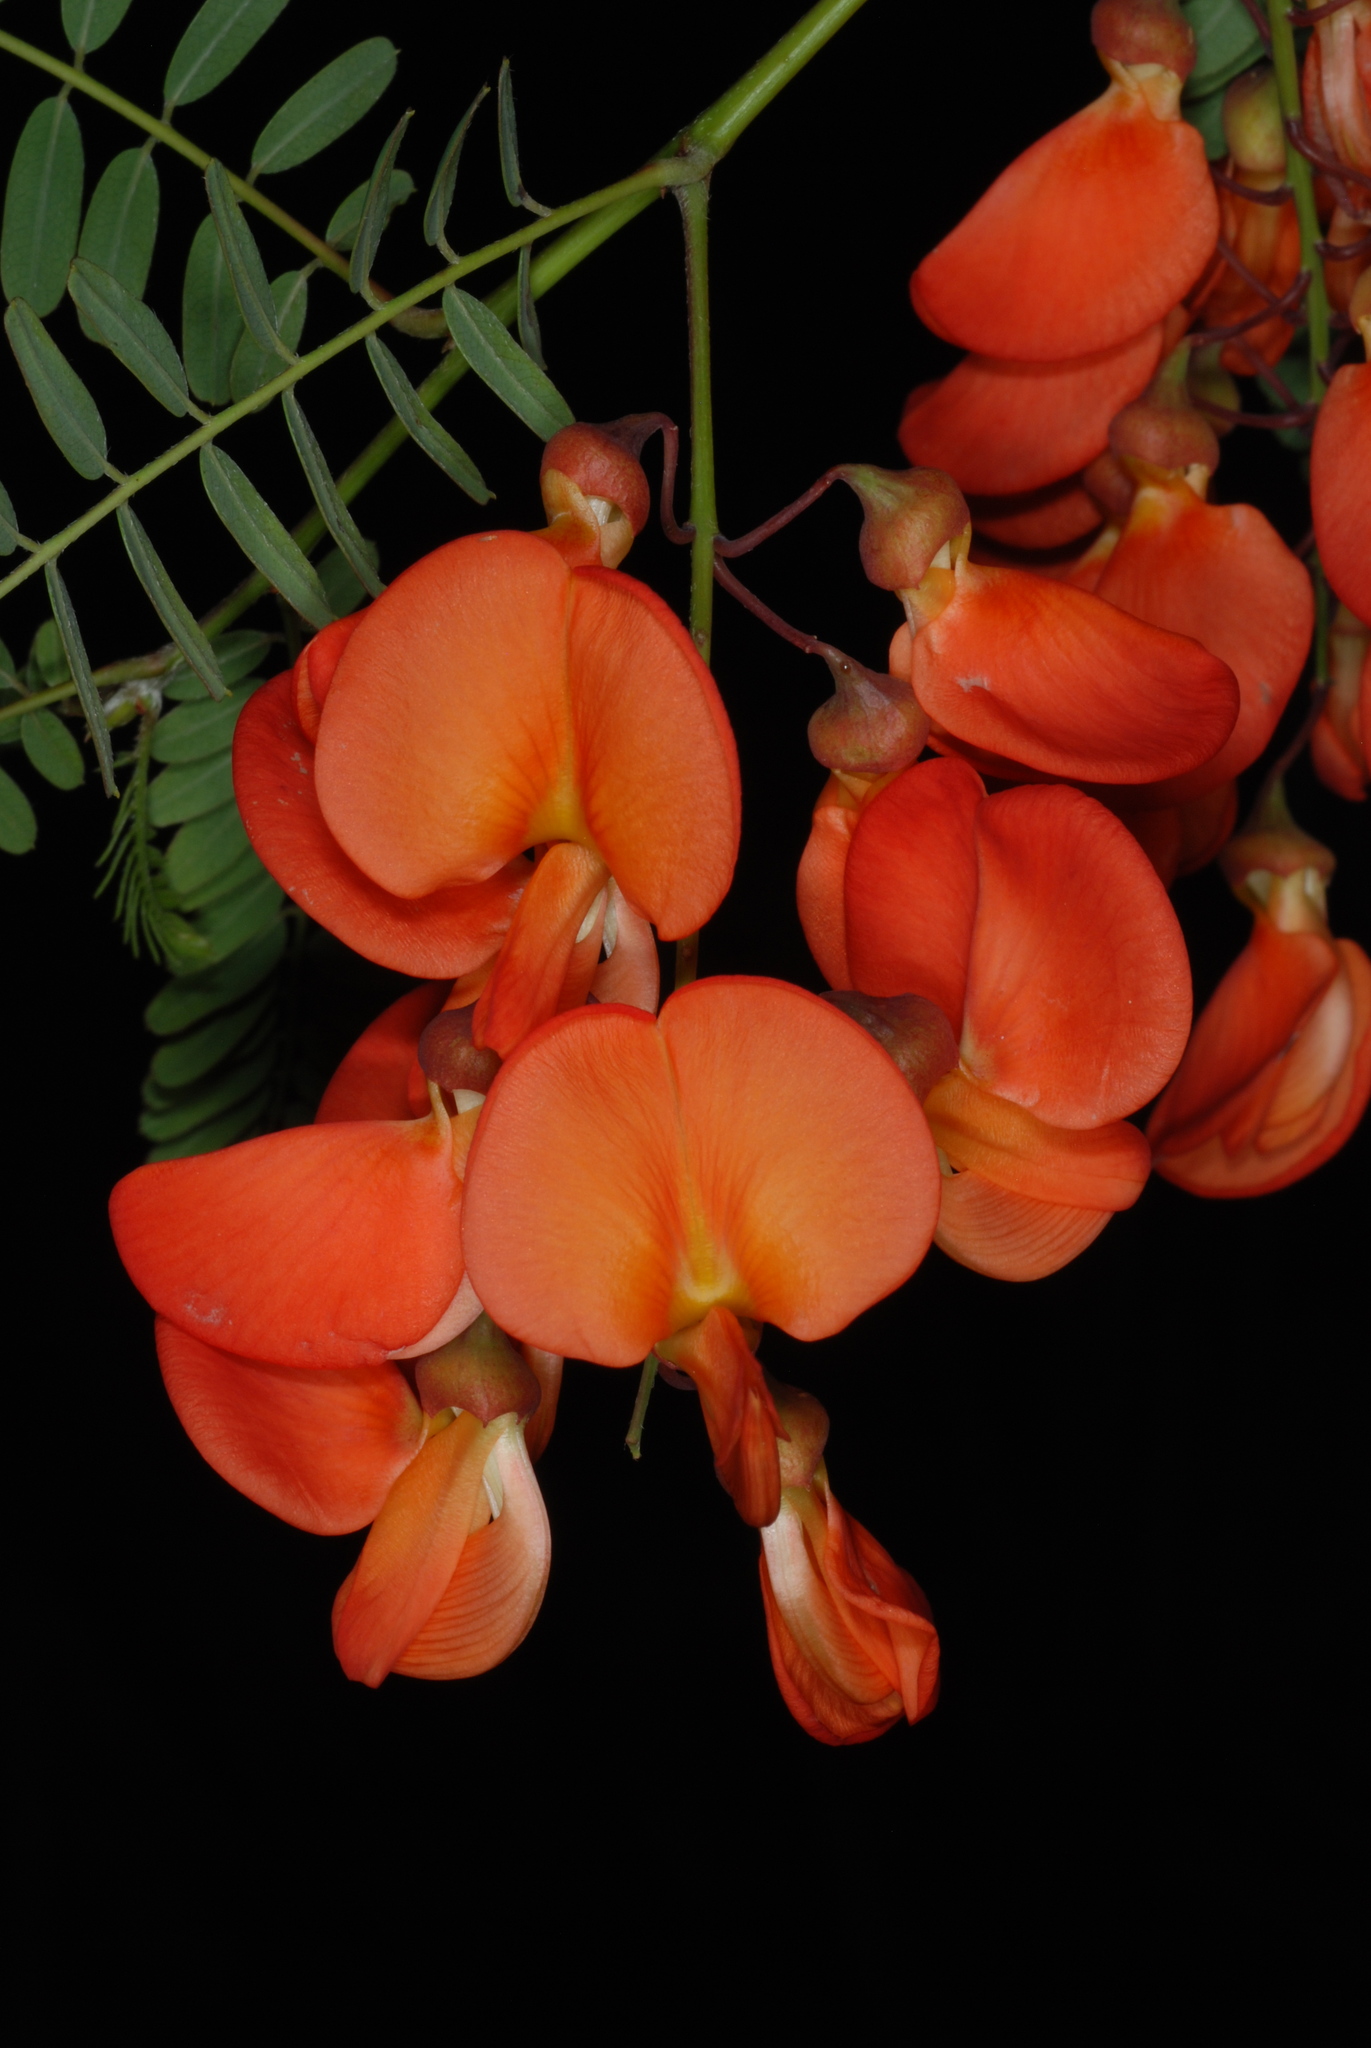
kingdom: Plantae
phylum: Tracheophyta
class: Magnoliopsida
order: Fabales
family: Fabaceae
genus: Sesbania
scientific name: Sesbania punicea
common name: Rattlebox
